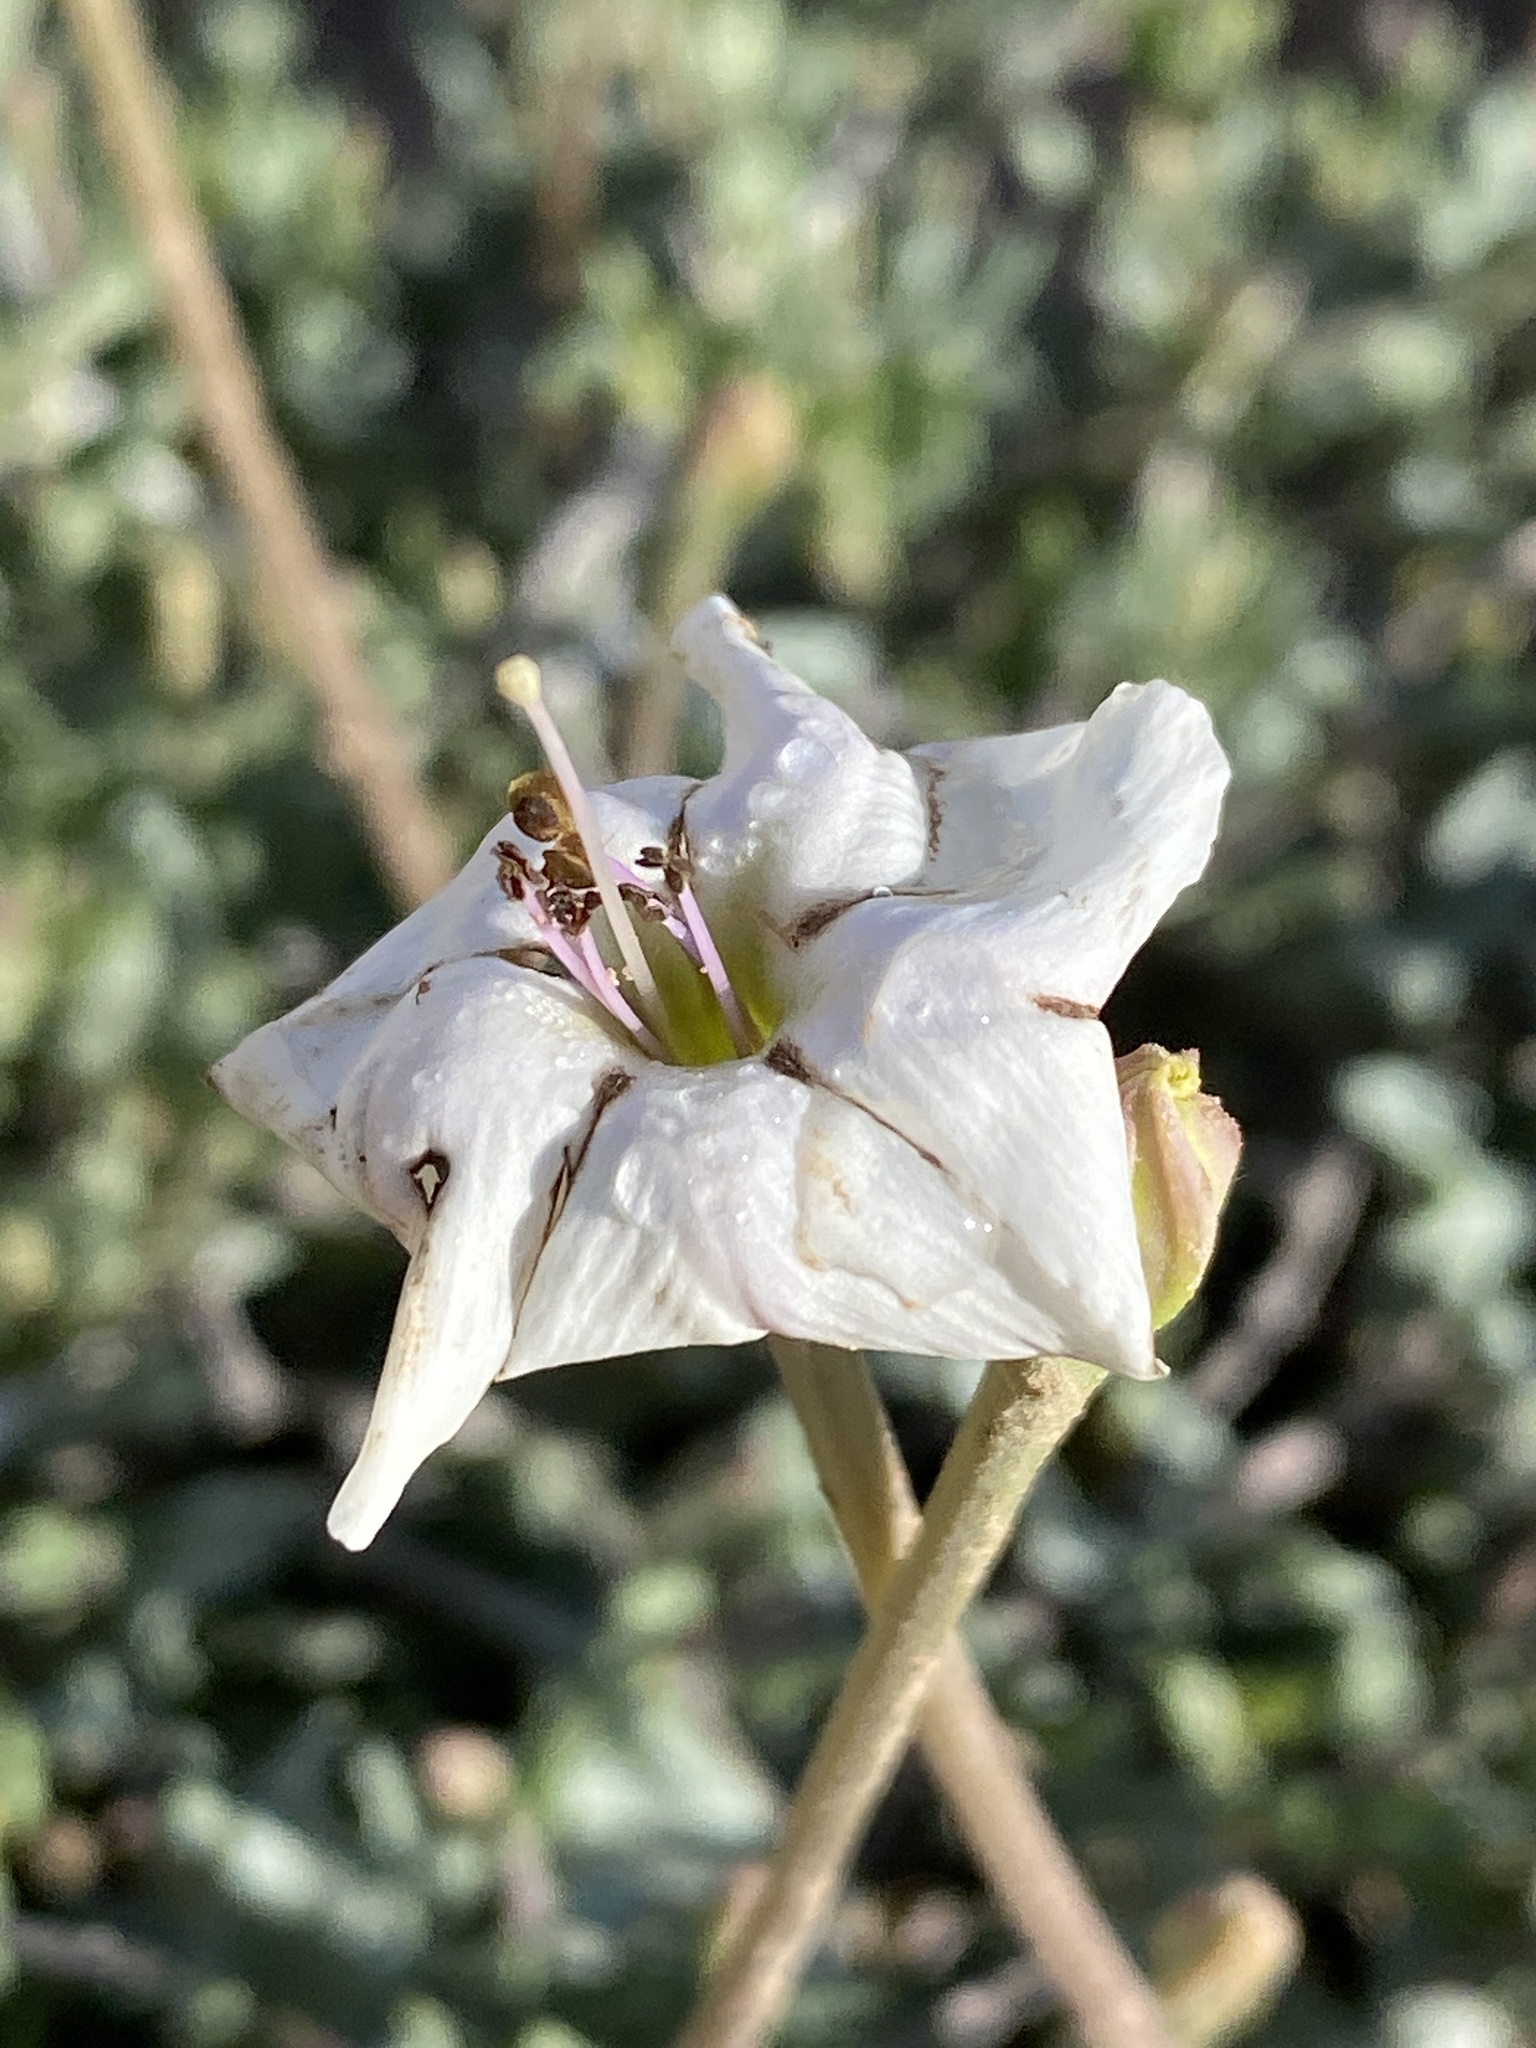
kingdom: Plantae
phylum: Tracheophyta
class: Magnoliopsida
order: Caryophyllales
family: Nyctaginaceae
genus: Acleisanthes
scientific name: Acleisanthes longiflora
